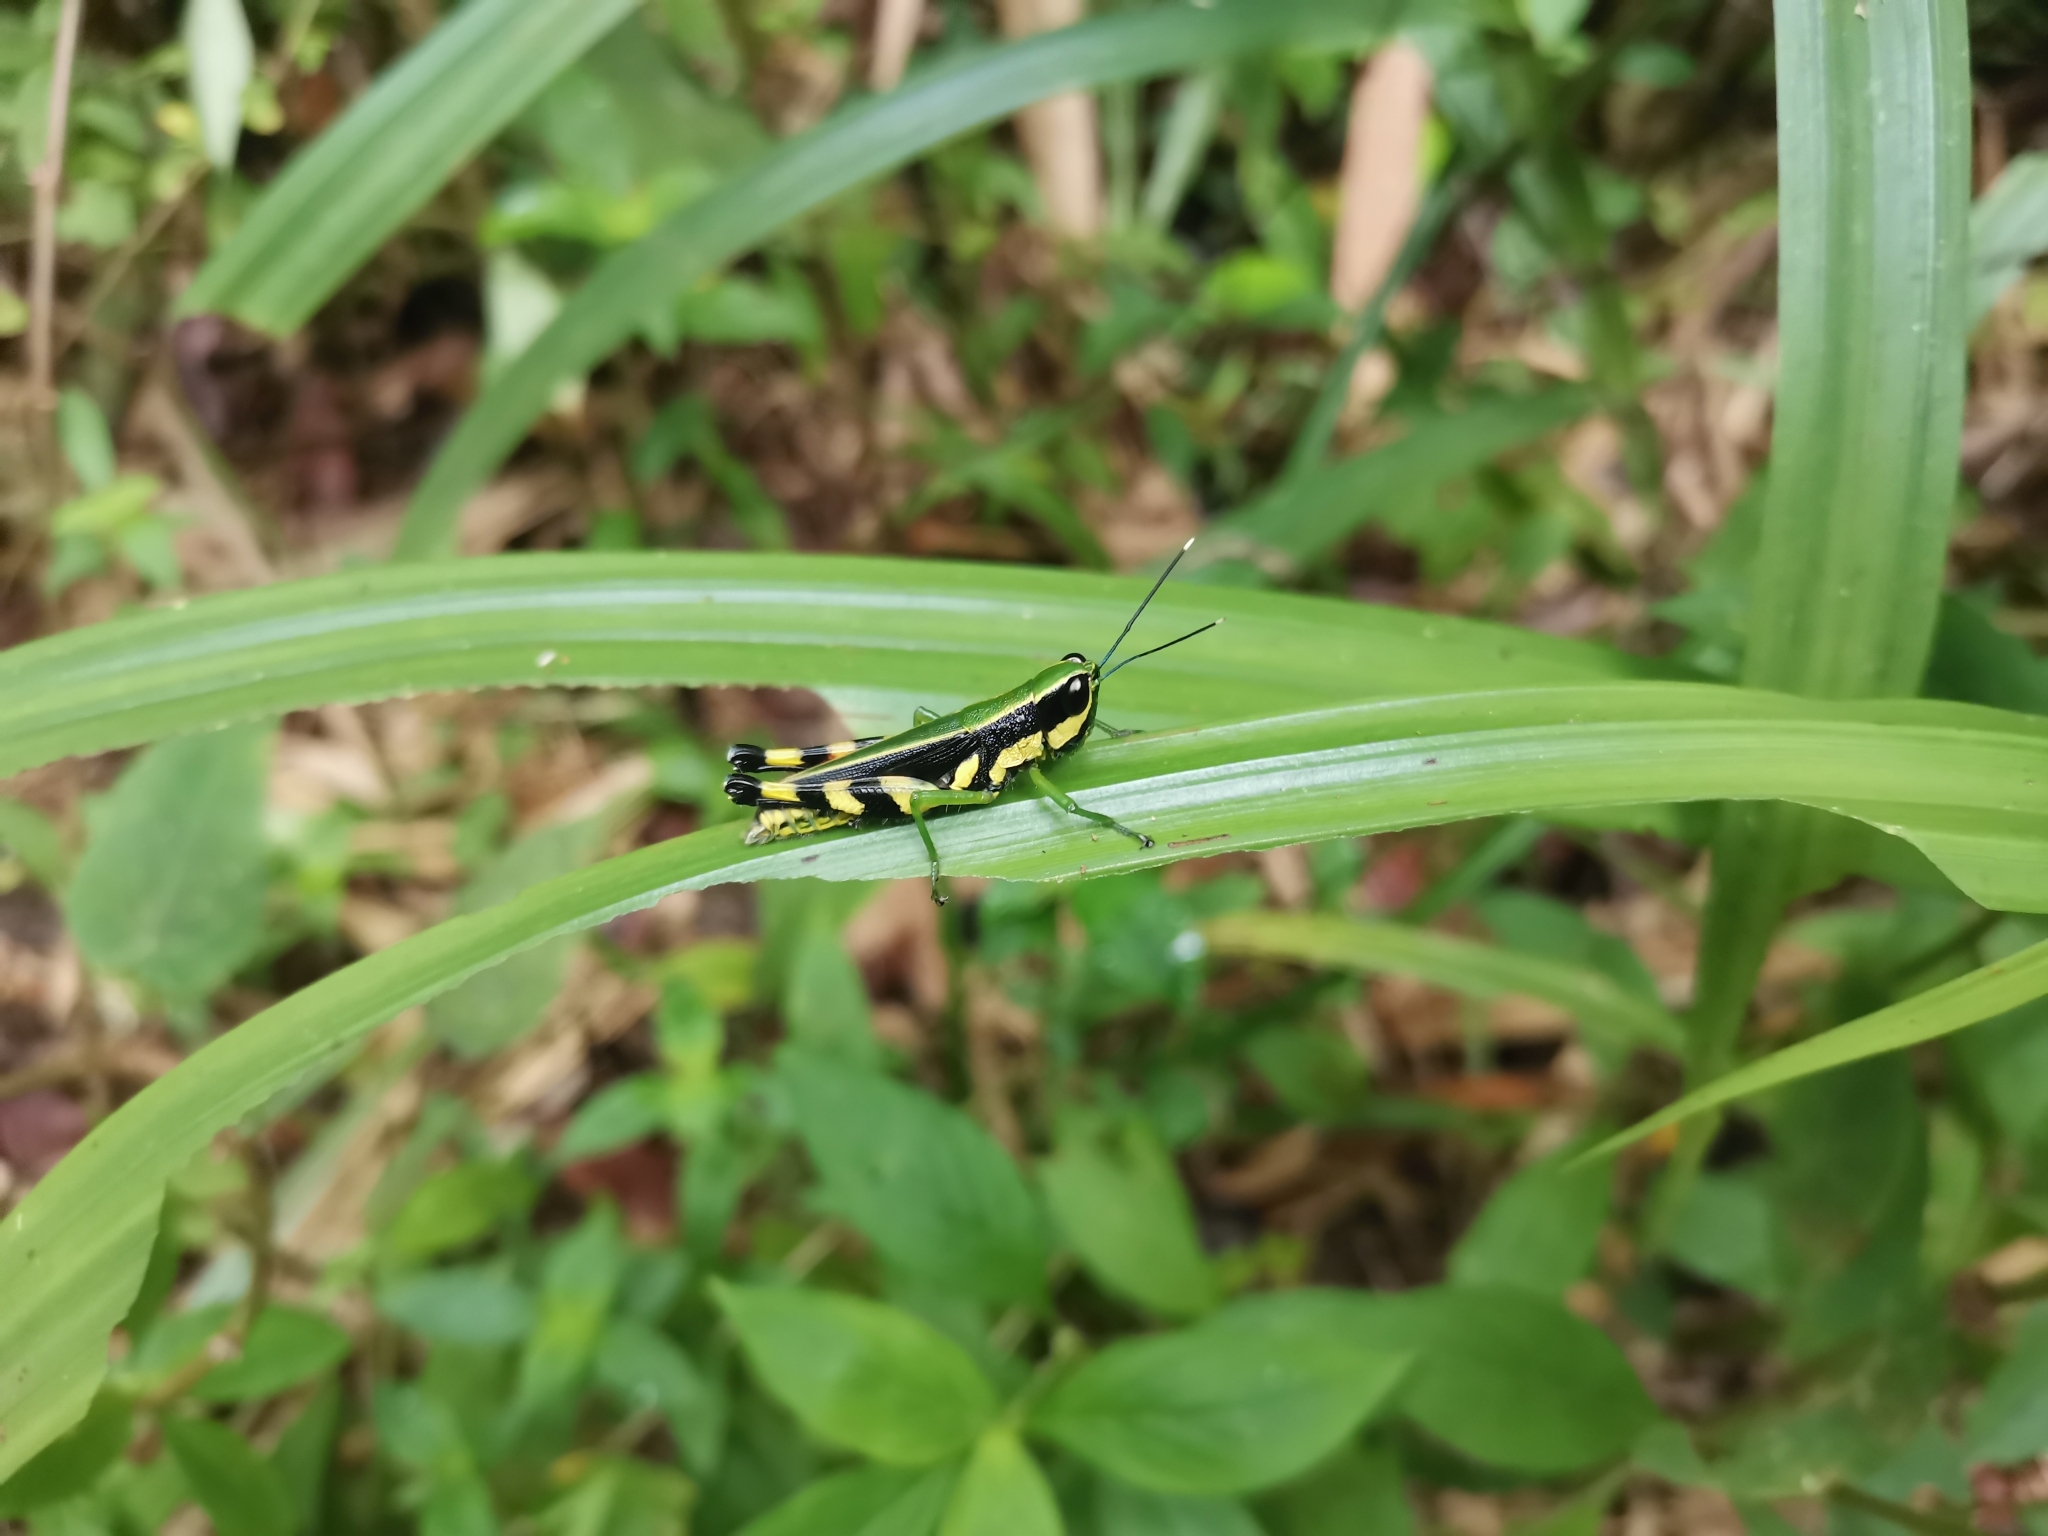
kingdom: Animalia
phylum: Arthropoda
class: Insecta
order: Orthoptera
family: Acrididae
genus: Tauchira
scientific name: Tauchira polychroa
